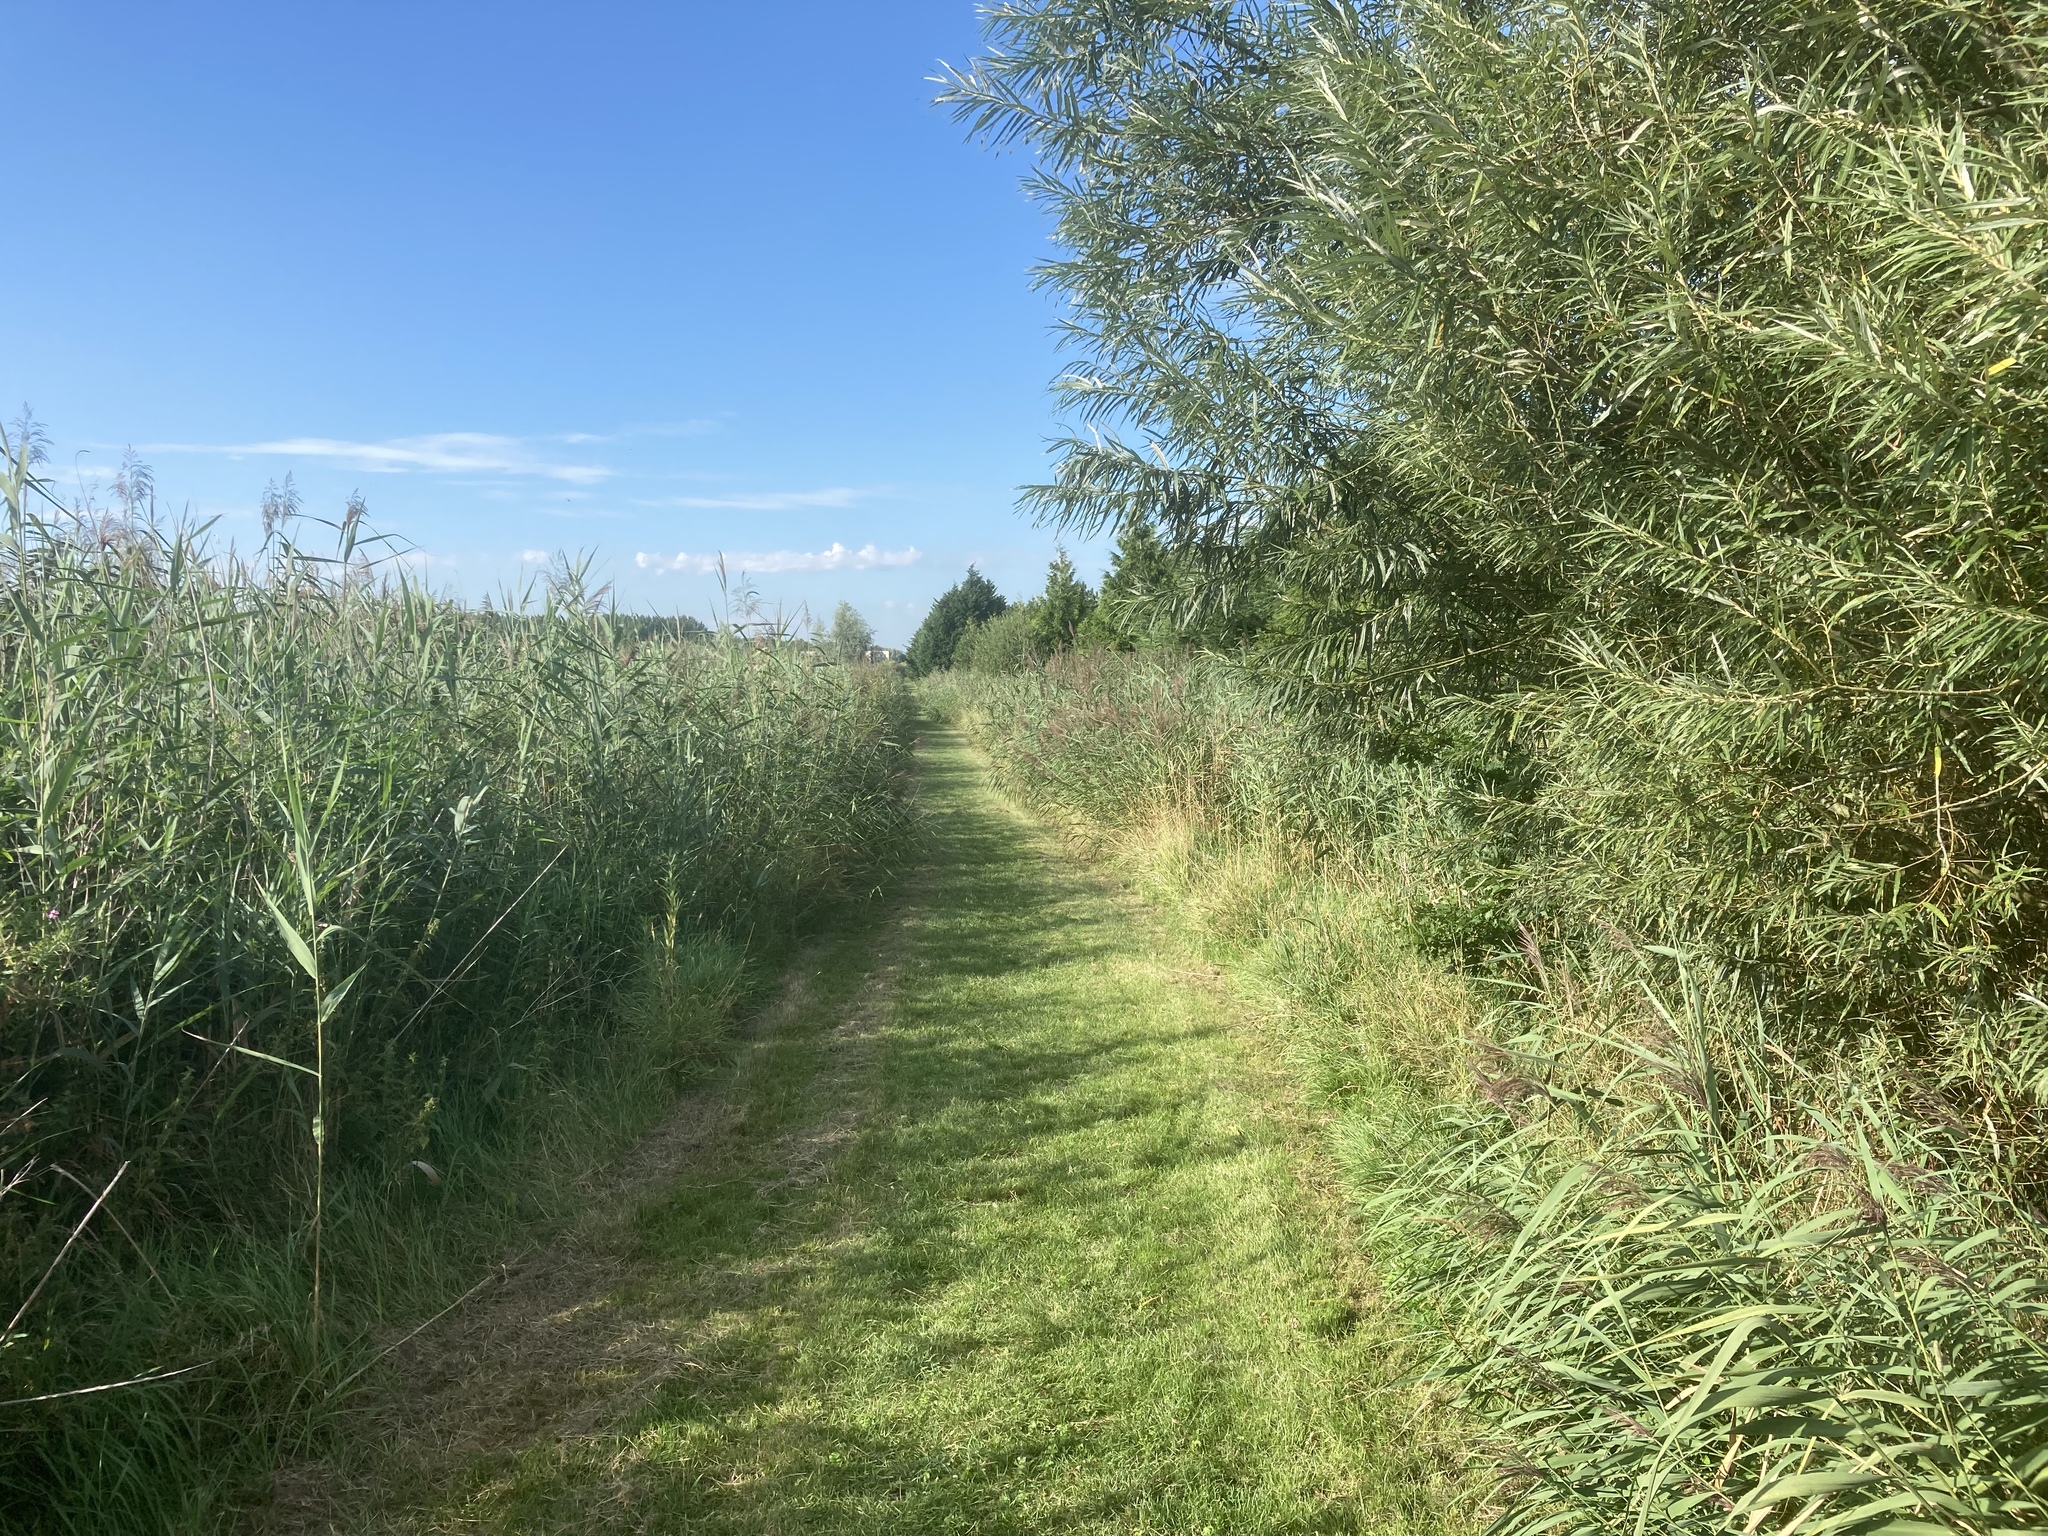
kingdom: Plantae
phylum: Tracheophyta
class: Liliopsida
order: Poales
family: Poaceae
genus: Phragmites
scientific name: Phragmites australis
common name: Common reed
